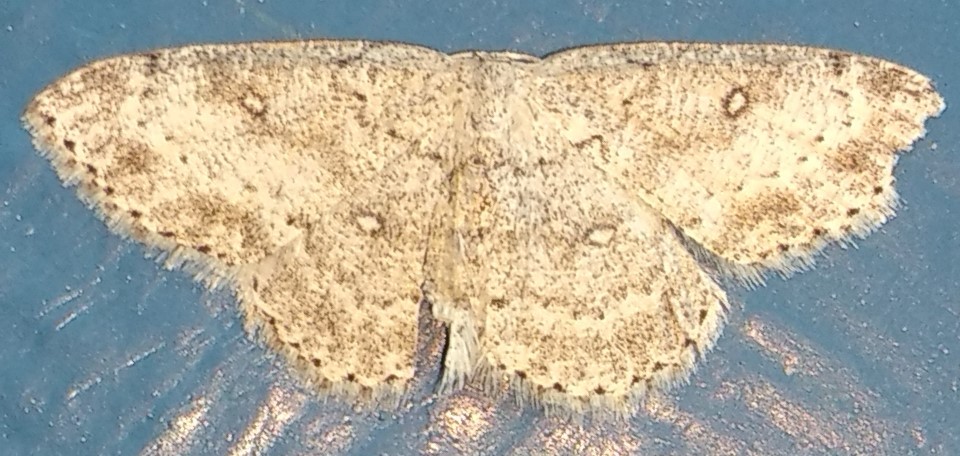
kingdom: Animalia
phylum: Arthropoda
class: Insecta
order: Lepidoptera
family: Geometridae
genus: Cyclophora
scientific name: Cyclophora pendulinaria
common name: Sweet fern geometer
